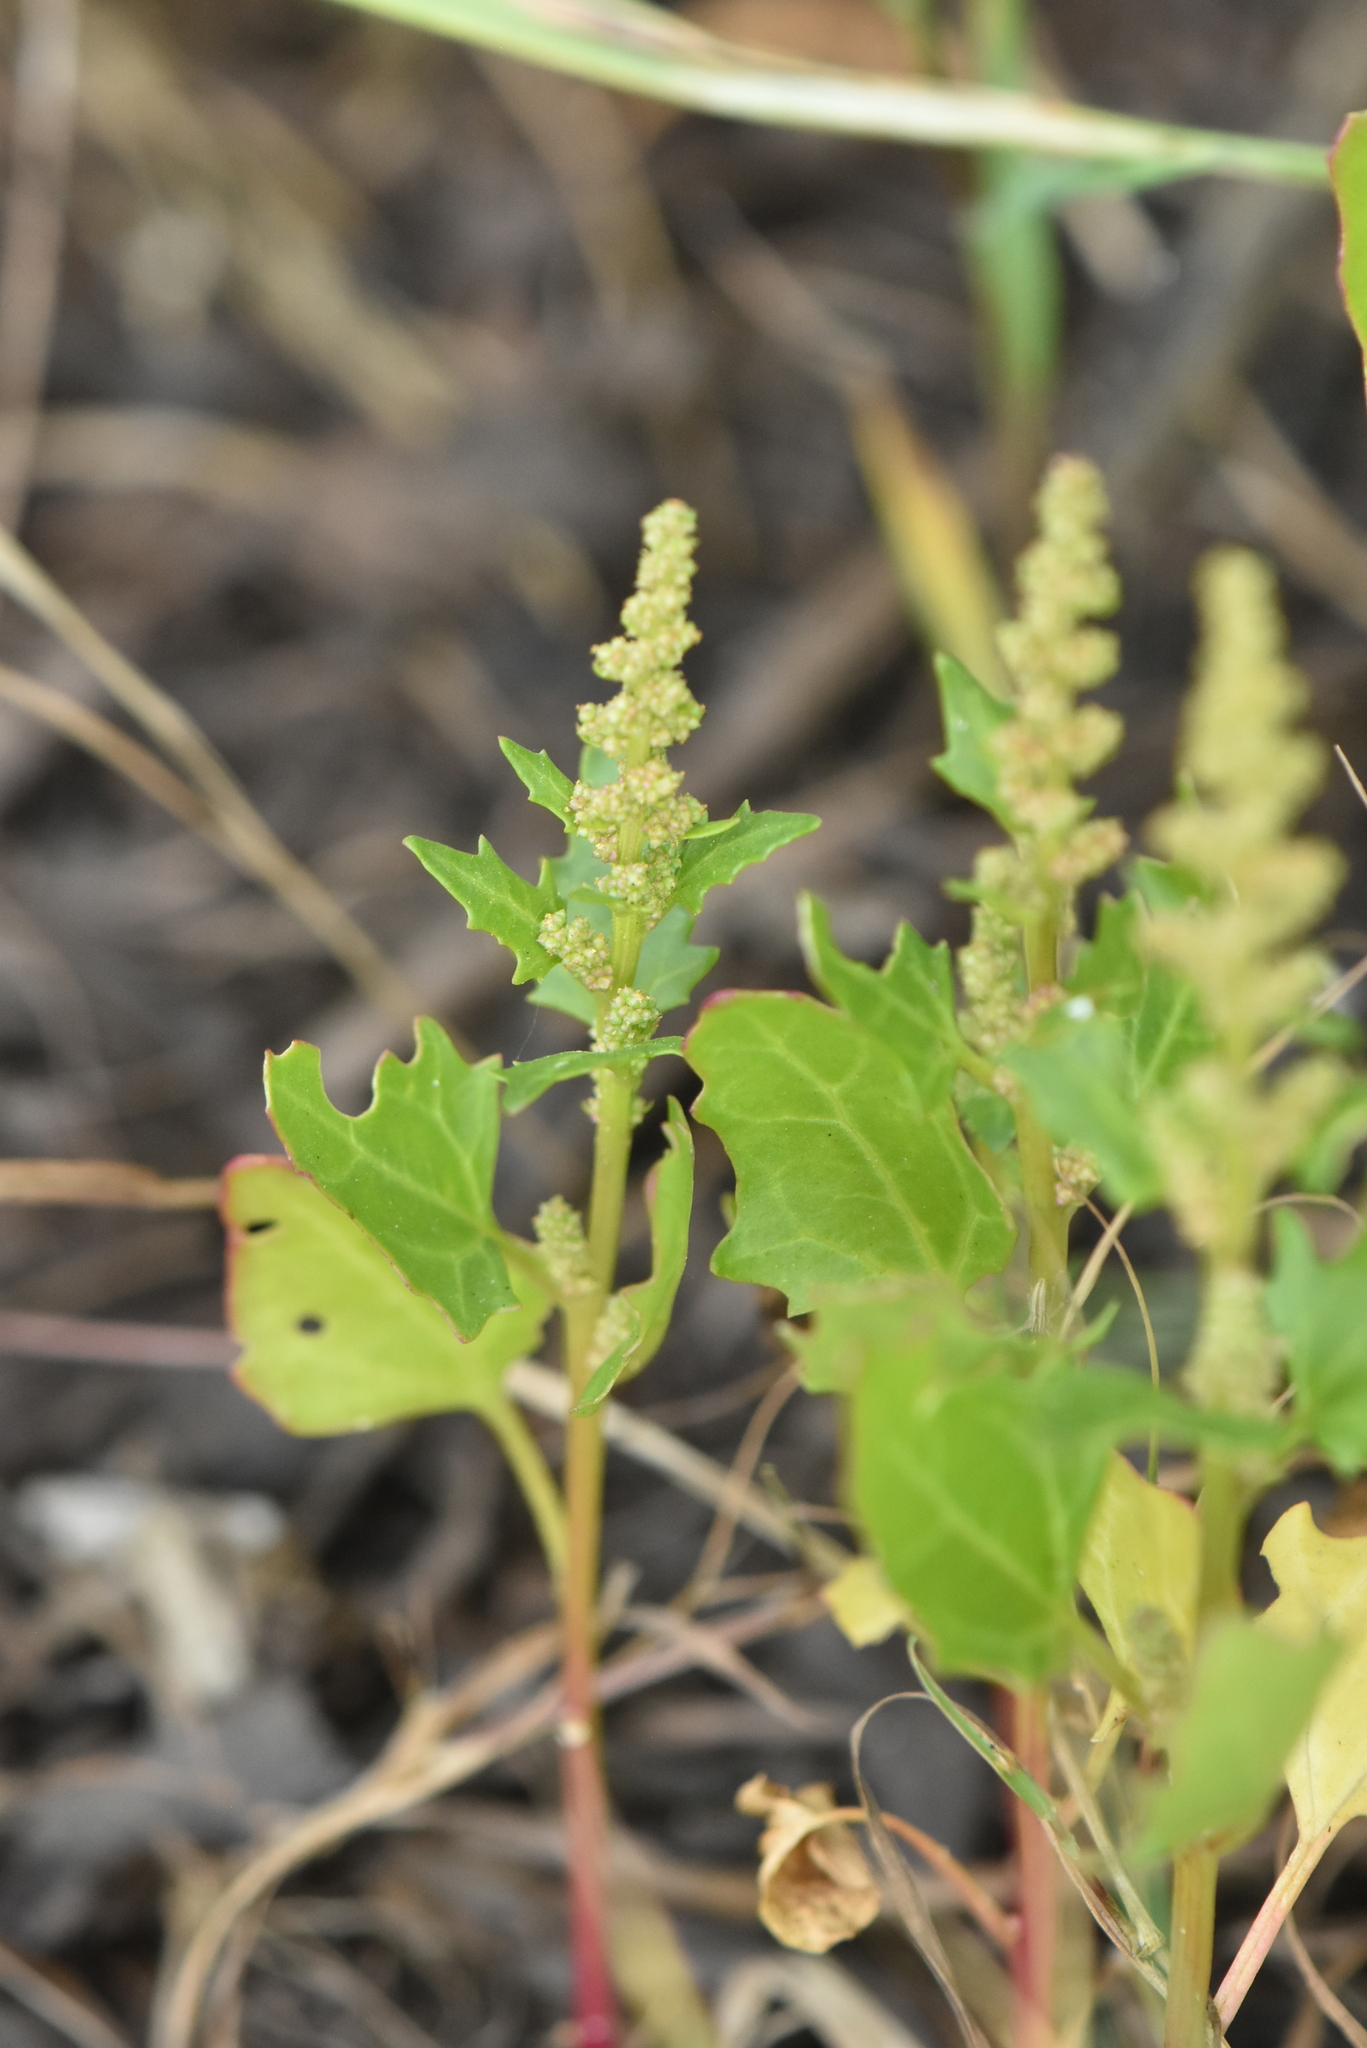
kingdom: Plantae
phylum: Tracheophyta
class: Magnoliopsida
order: Caryophyllales
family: Amaranthaceae
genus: Oxybasis
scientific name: Oxybasis rubra
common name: Red goosefoot
